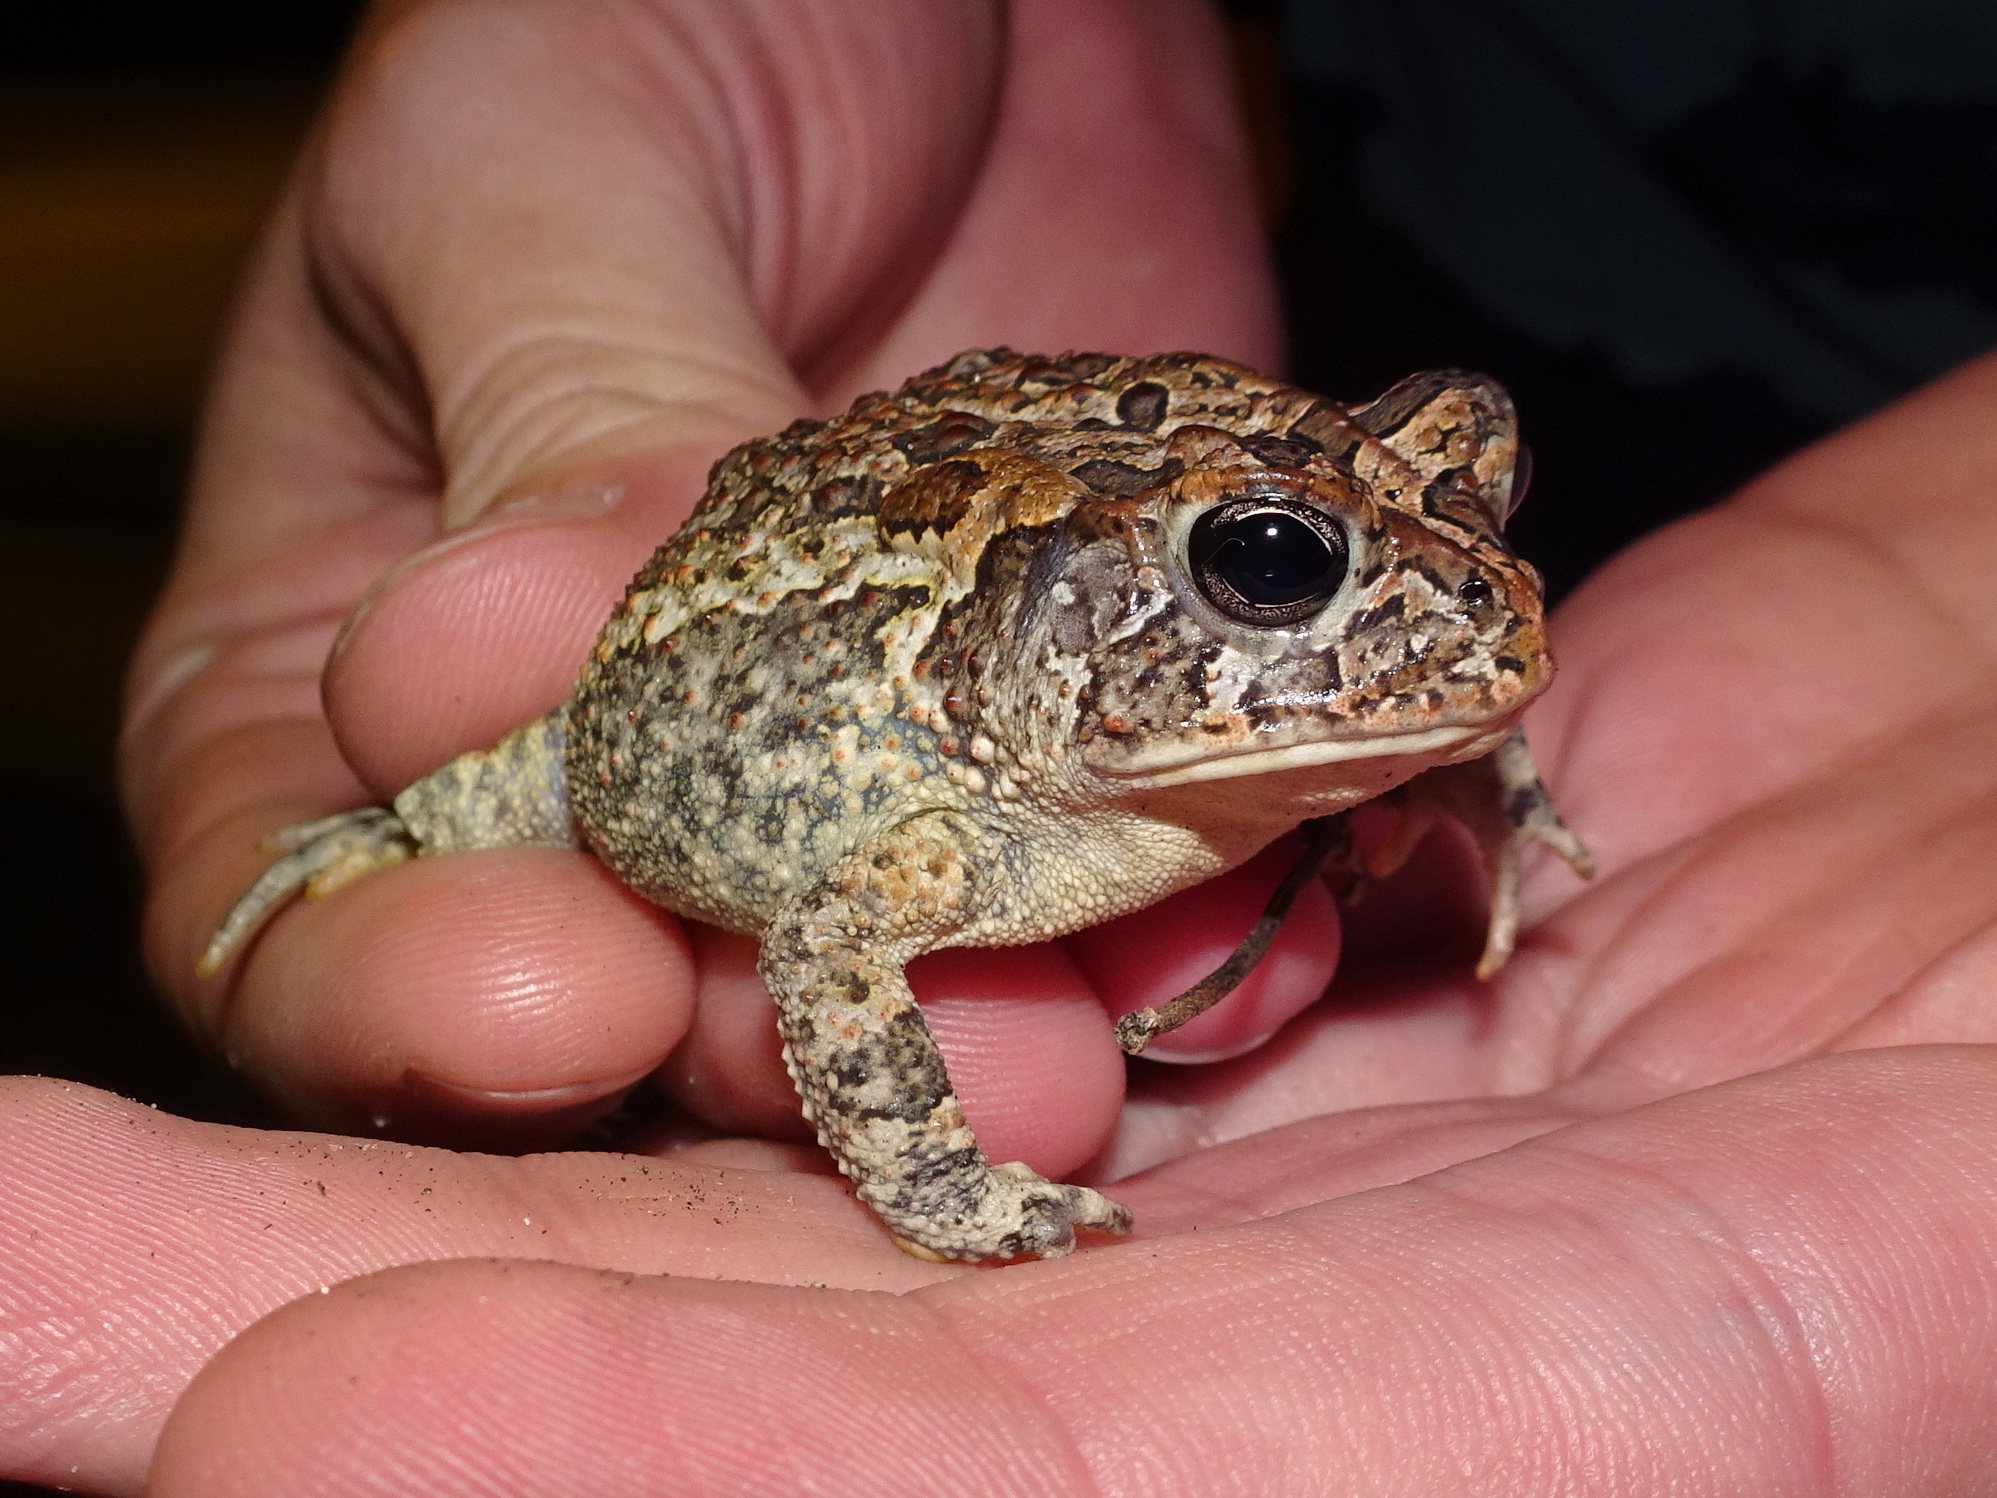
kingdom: Animalia
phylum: Chordata
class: Amphibia
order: Anura
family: Bufonidae
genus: Anaxyrus
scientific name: Anaxyrus terrestris
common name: Southern toad
